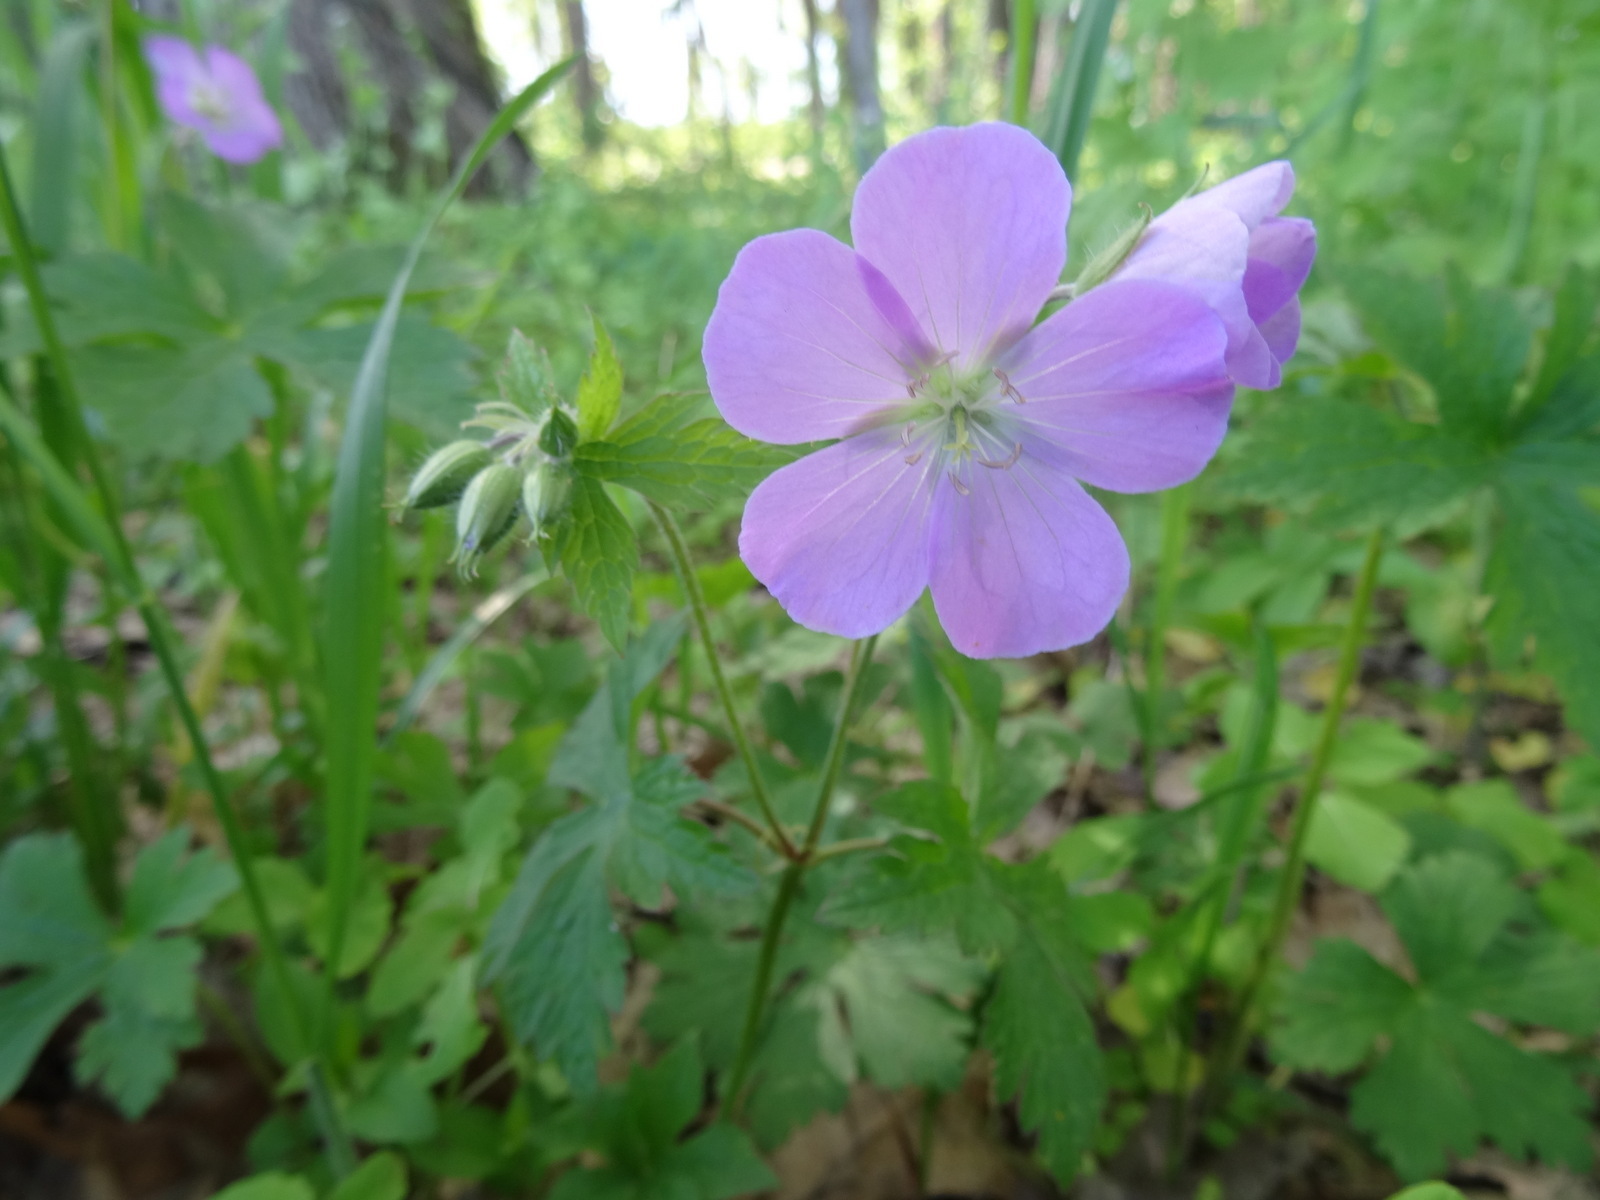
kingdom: Plantae
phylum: Tracheophyta
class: Magnoliopsida
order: Geraniales
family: Geraniaceae
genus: Geranium
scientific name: Geranium maculatum
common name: Spotted geranium
